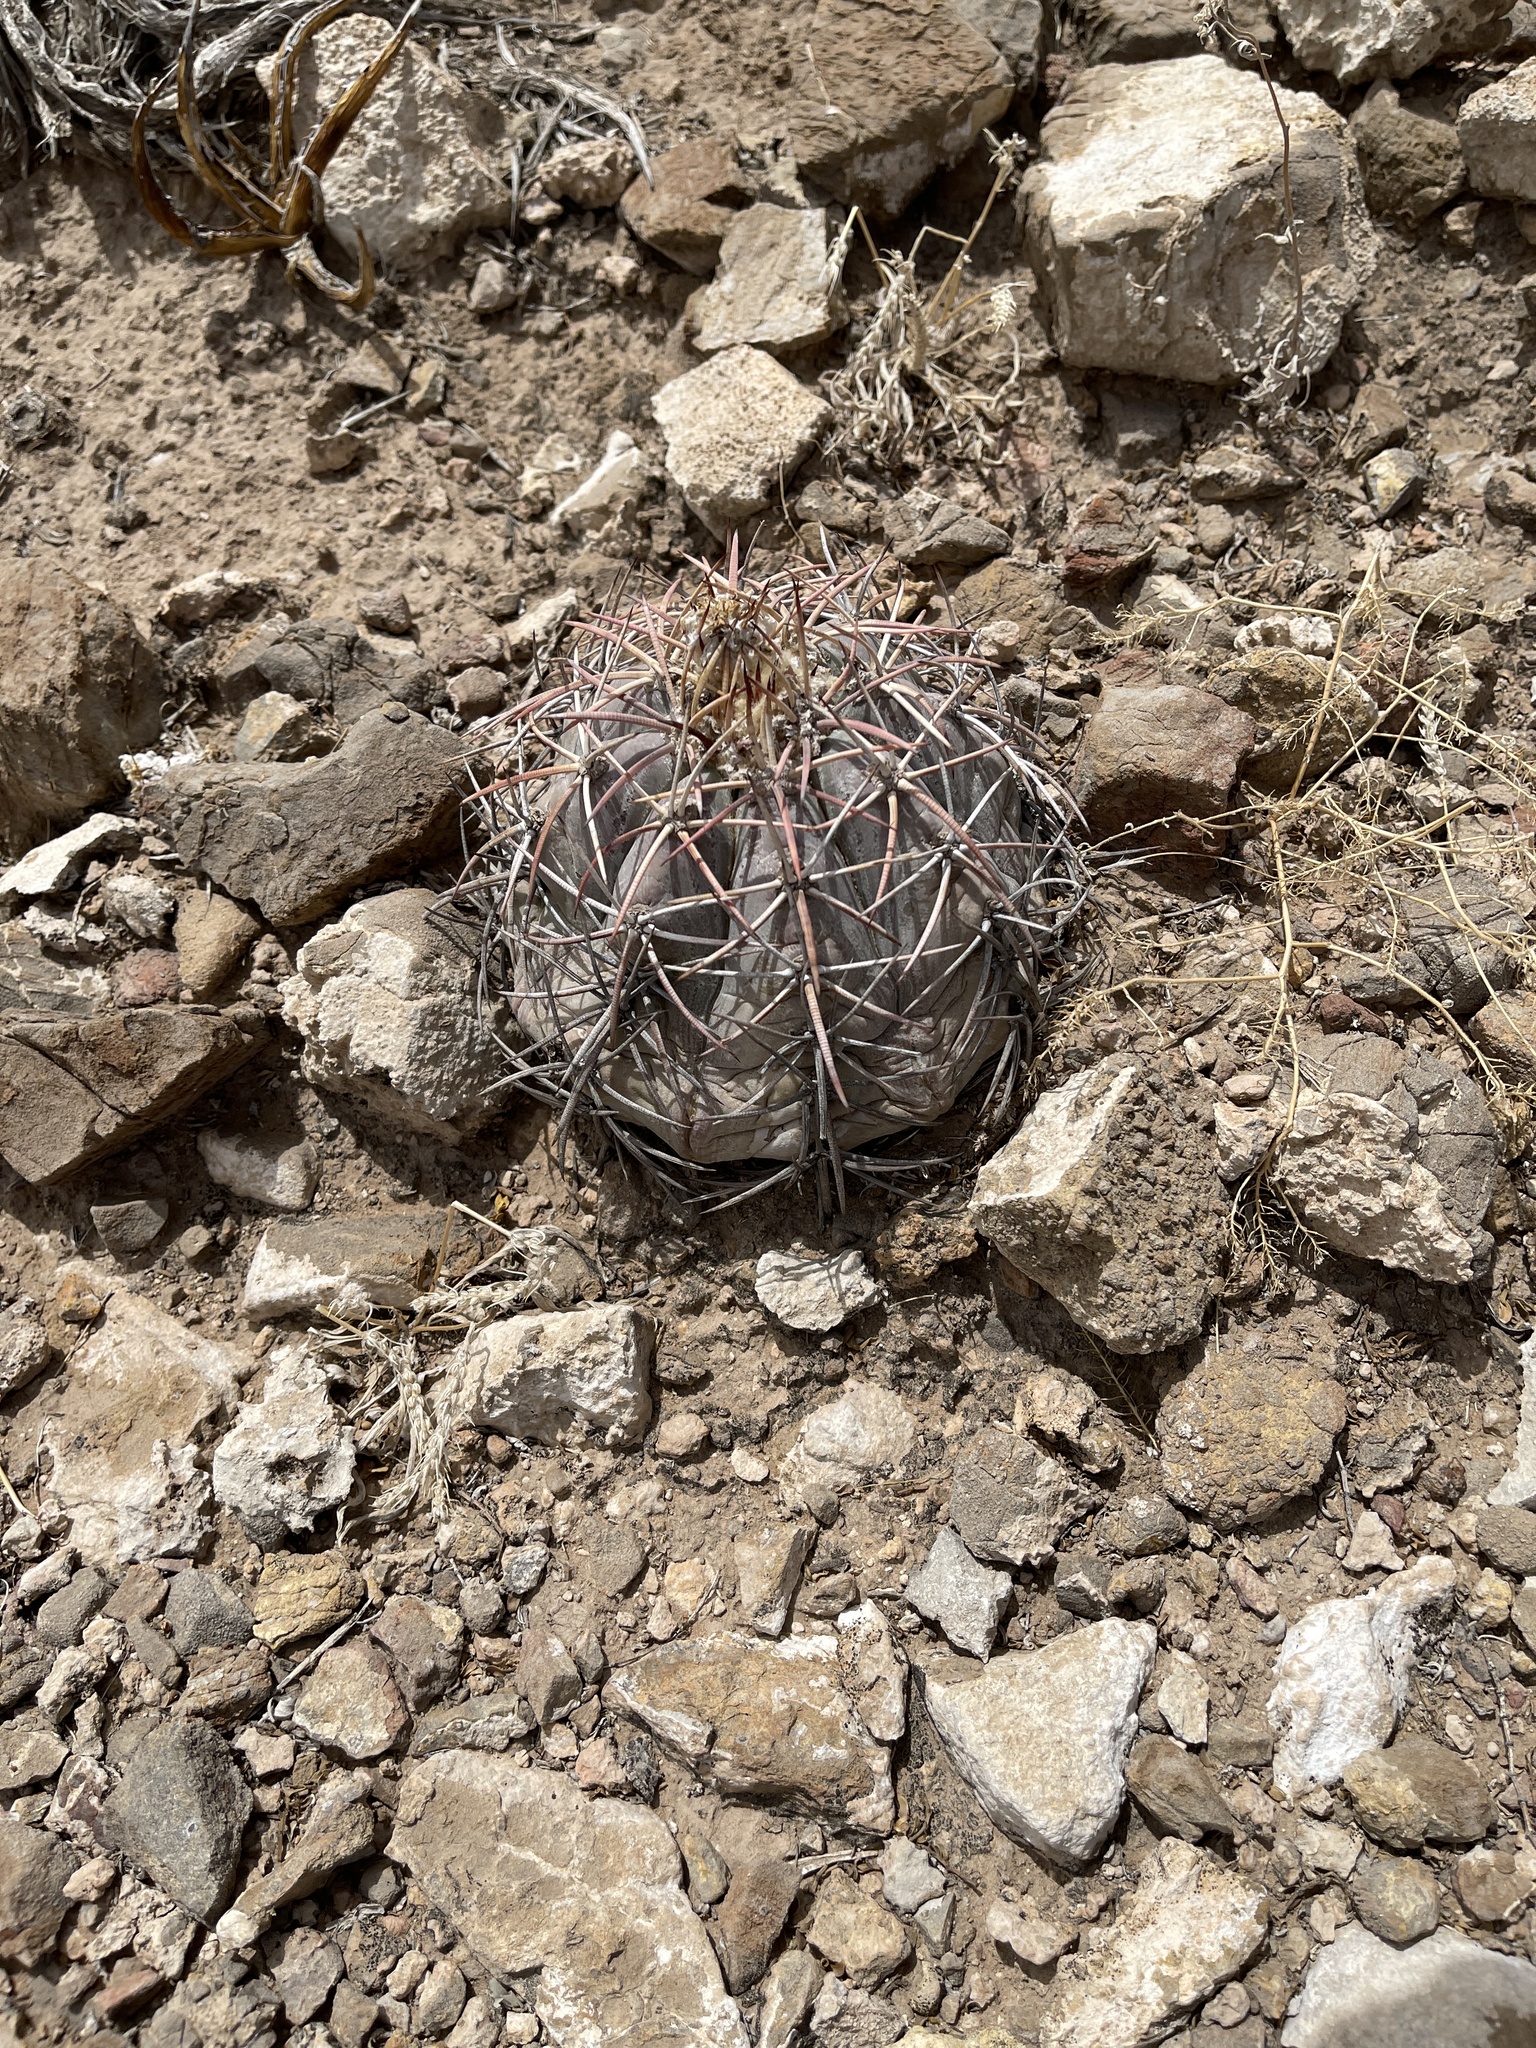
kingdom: Plantae
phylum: Tracheophyta
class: Magnoliopsida
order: Caryophyllales
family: Cactaceae
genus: Echinocactus
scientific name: Echinocactus horizonthalonius
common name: Devilshead
